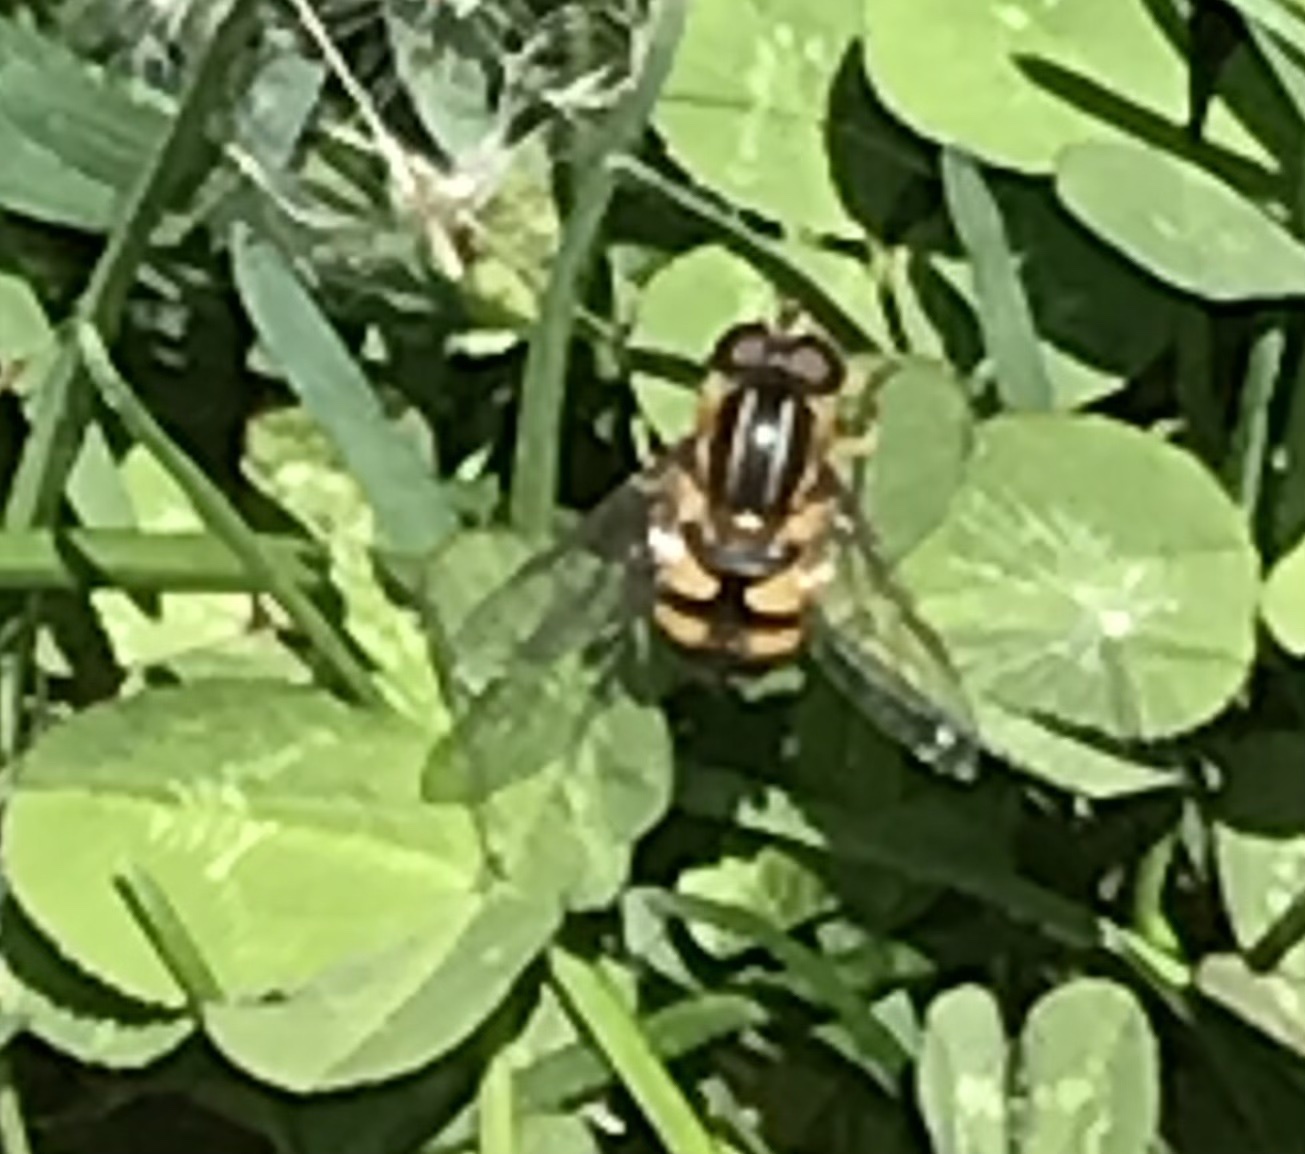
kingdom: Animalia
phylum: Arthropoda
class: Insecta
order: Diptera
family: Syrphidae
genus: Helophilus
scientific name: Helophilus fasciatus
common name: Narrow-headed marsh fly
